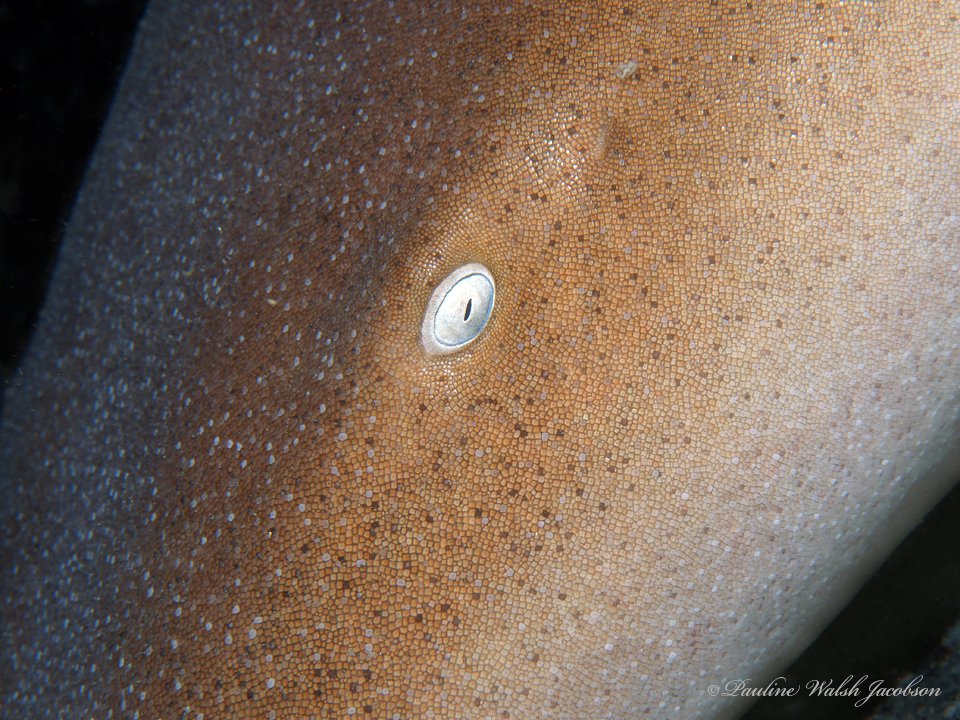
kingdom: Animalia
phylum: Chordata
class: Elasmobranchii
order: Orectolobiformes
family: Ginglymostomatidae
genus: Ginglymostoma
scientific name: Ginglymostoma cirratum
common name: Nurse shark
